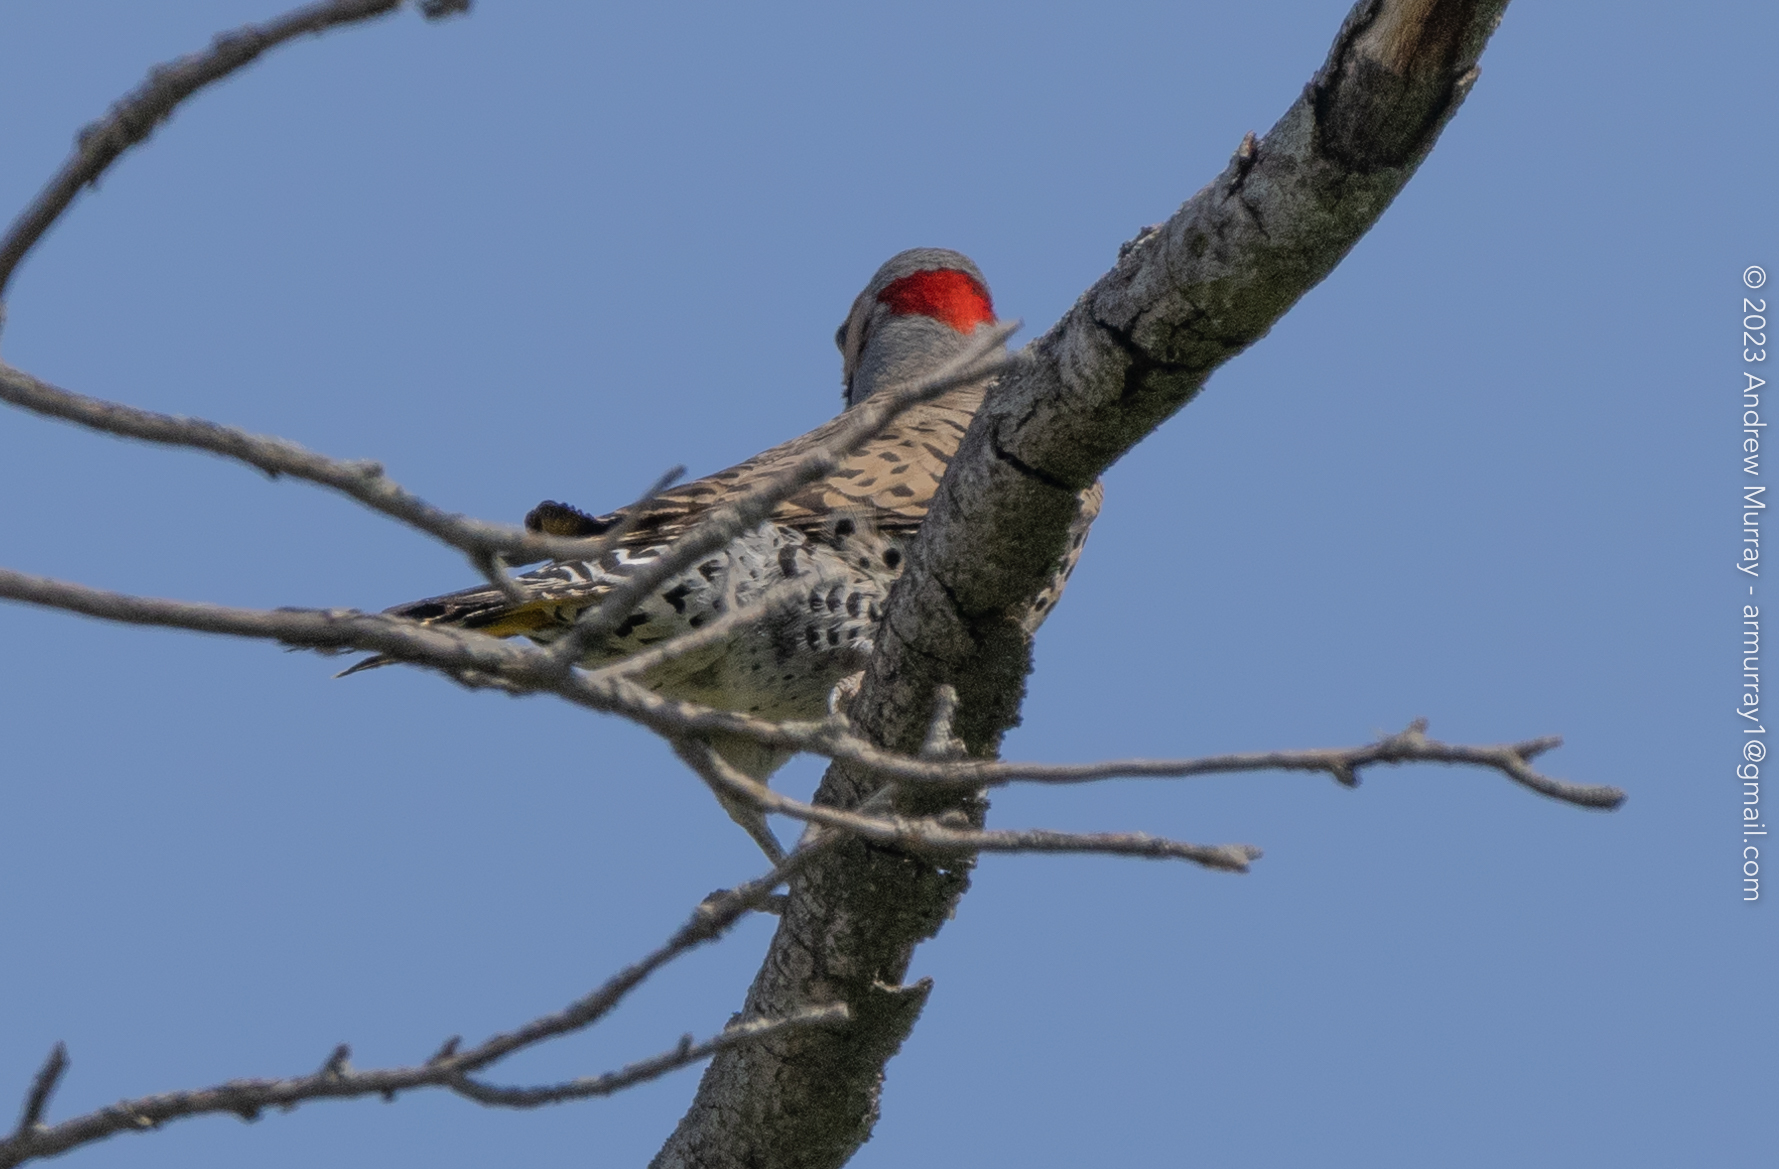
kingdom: Animalia
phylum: Chordata
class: Aves
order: Piciformes
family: Picidae
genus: Colaptes
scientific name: Colaptes auratus
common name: Northern flicker
